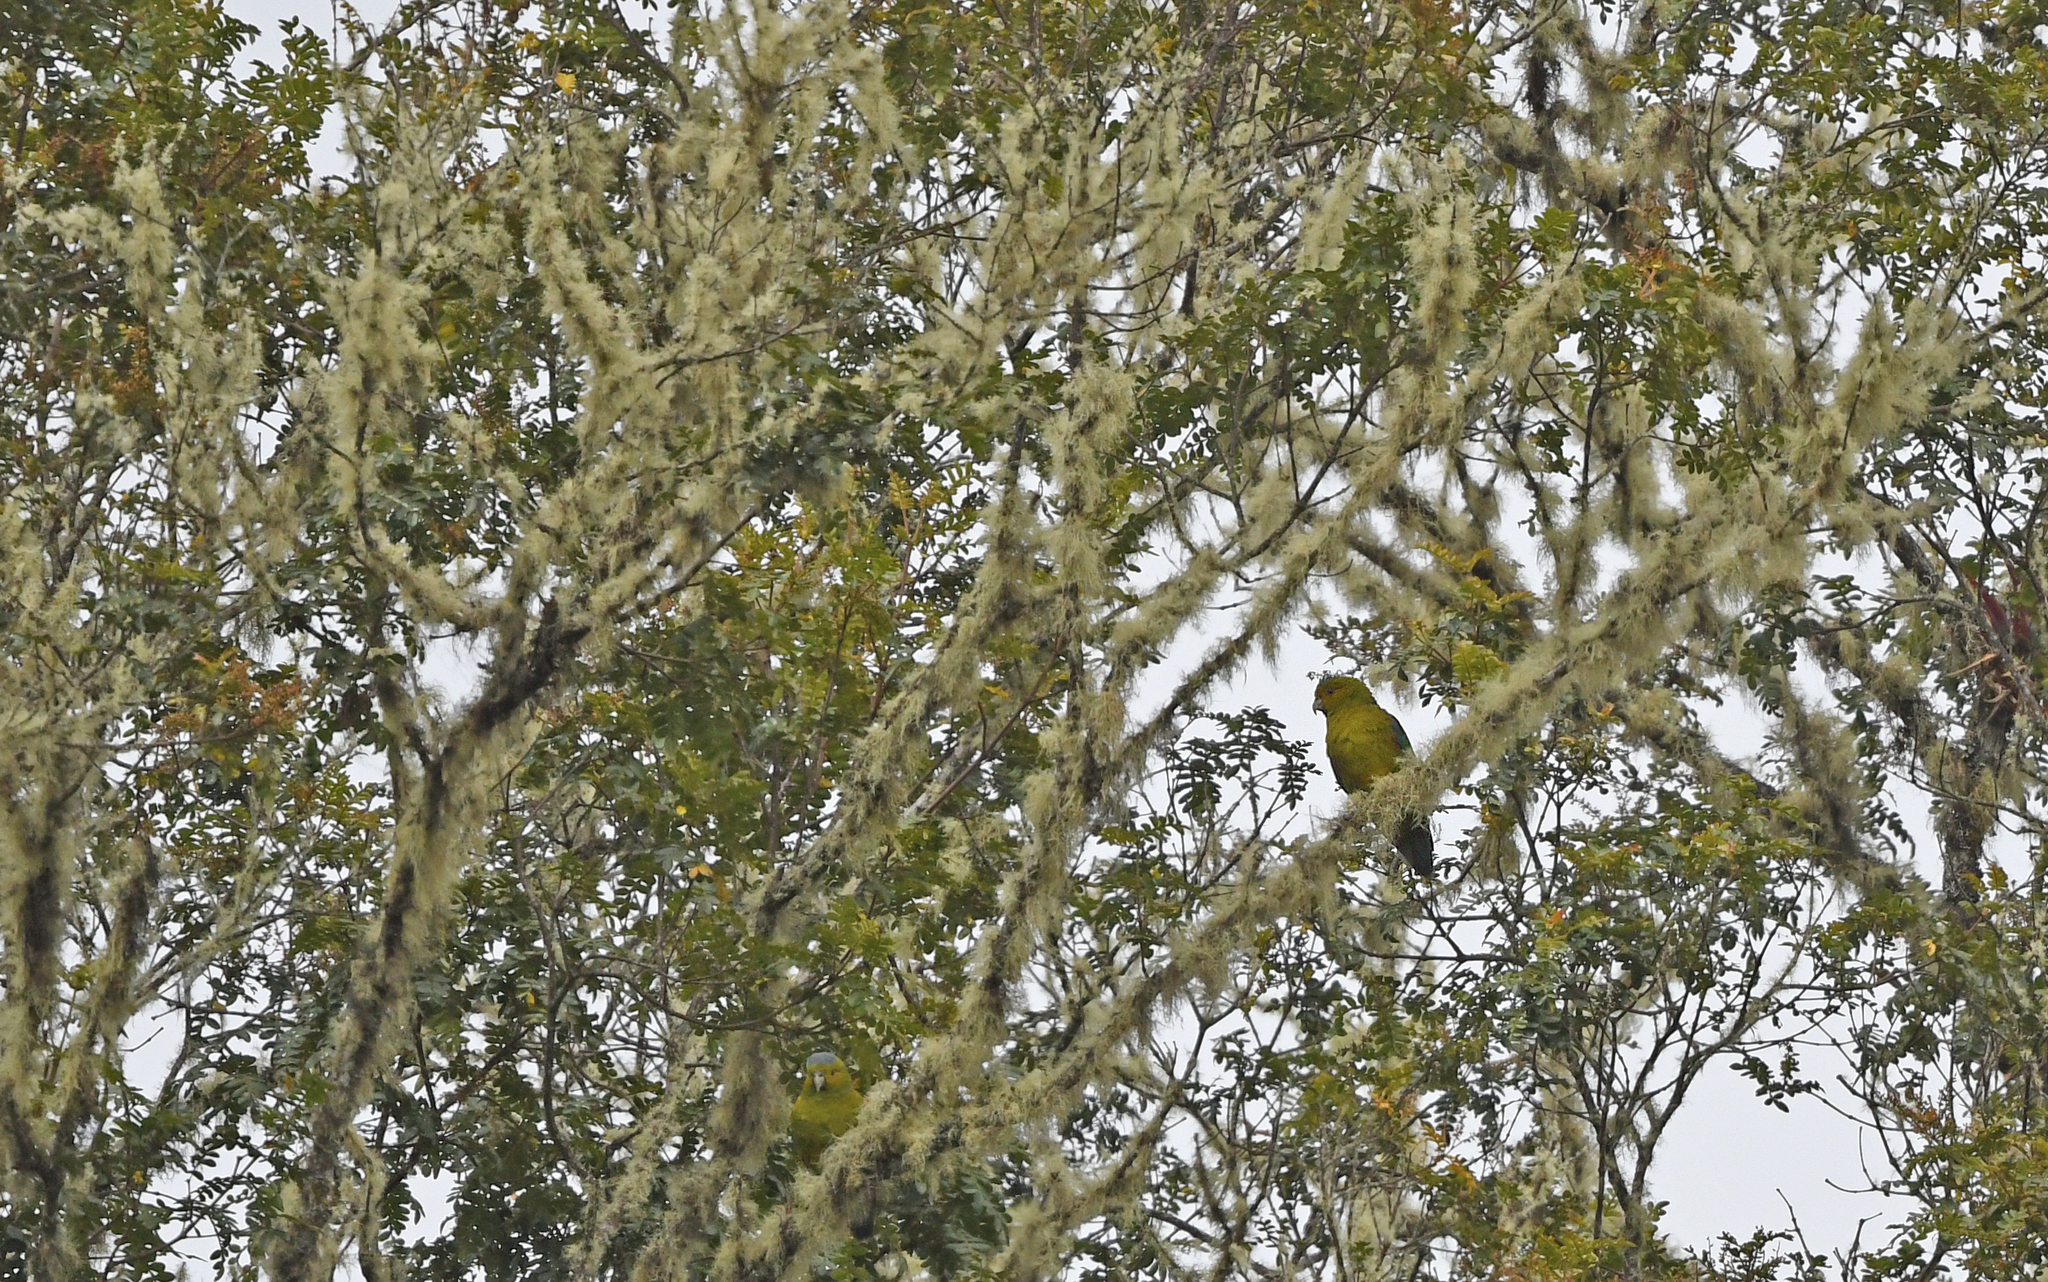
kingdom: Animalia
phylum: Chordata
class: Aves
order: Psittaciformes
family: Psittacidae
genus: Hapalopsittaca
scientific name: Hapalopsittaca fuertesi
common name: Fuertes's parrot
